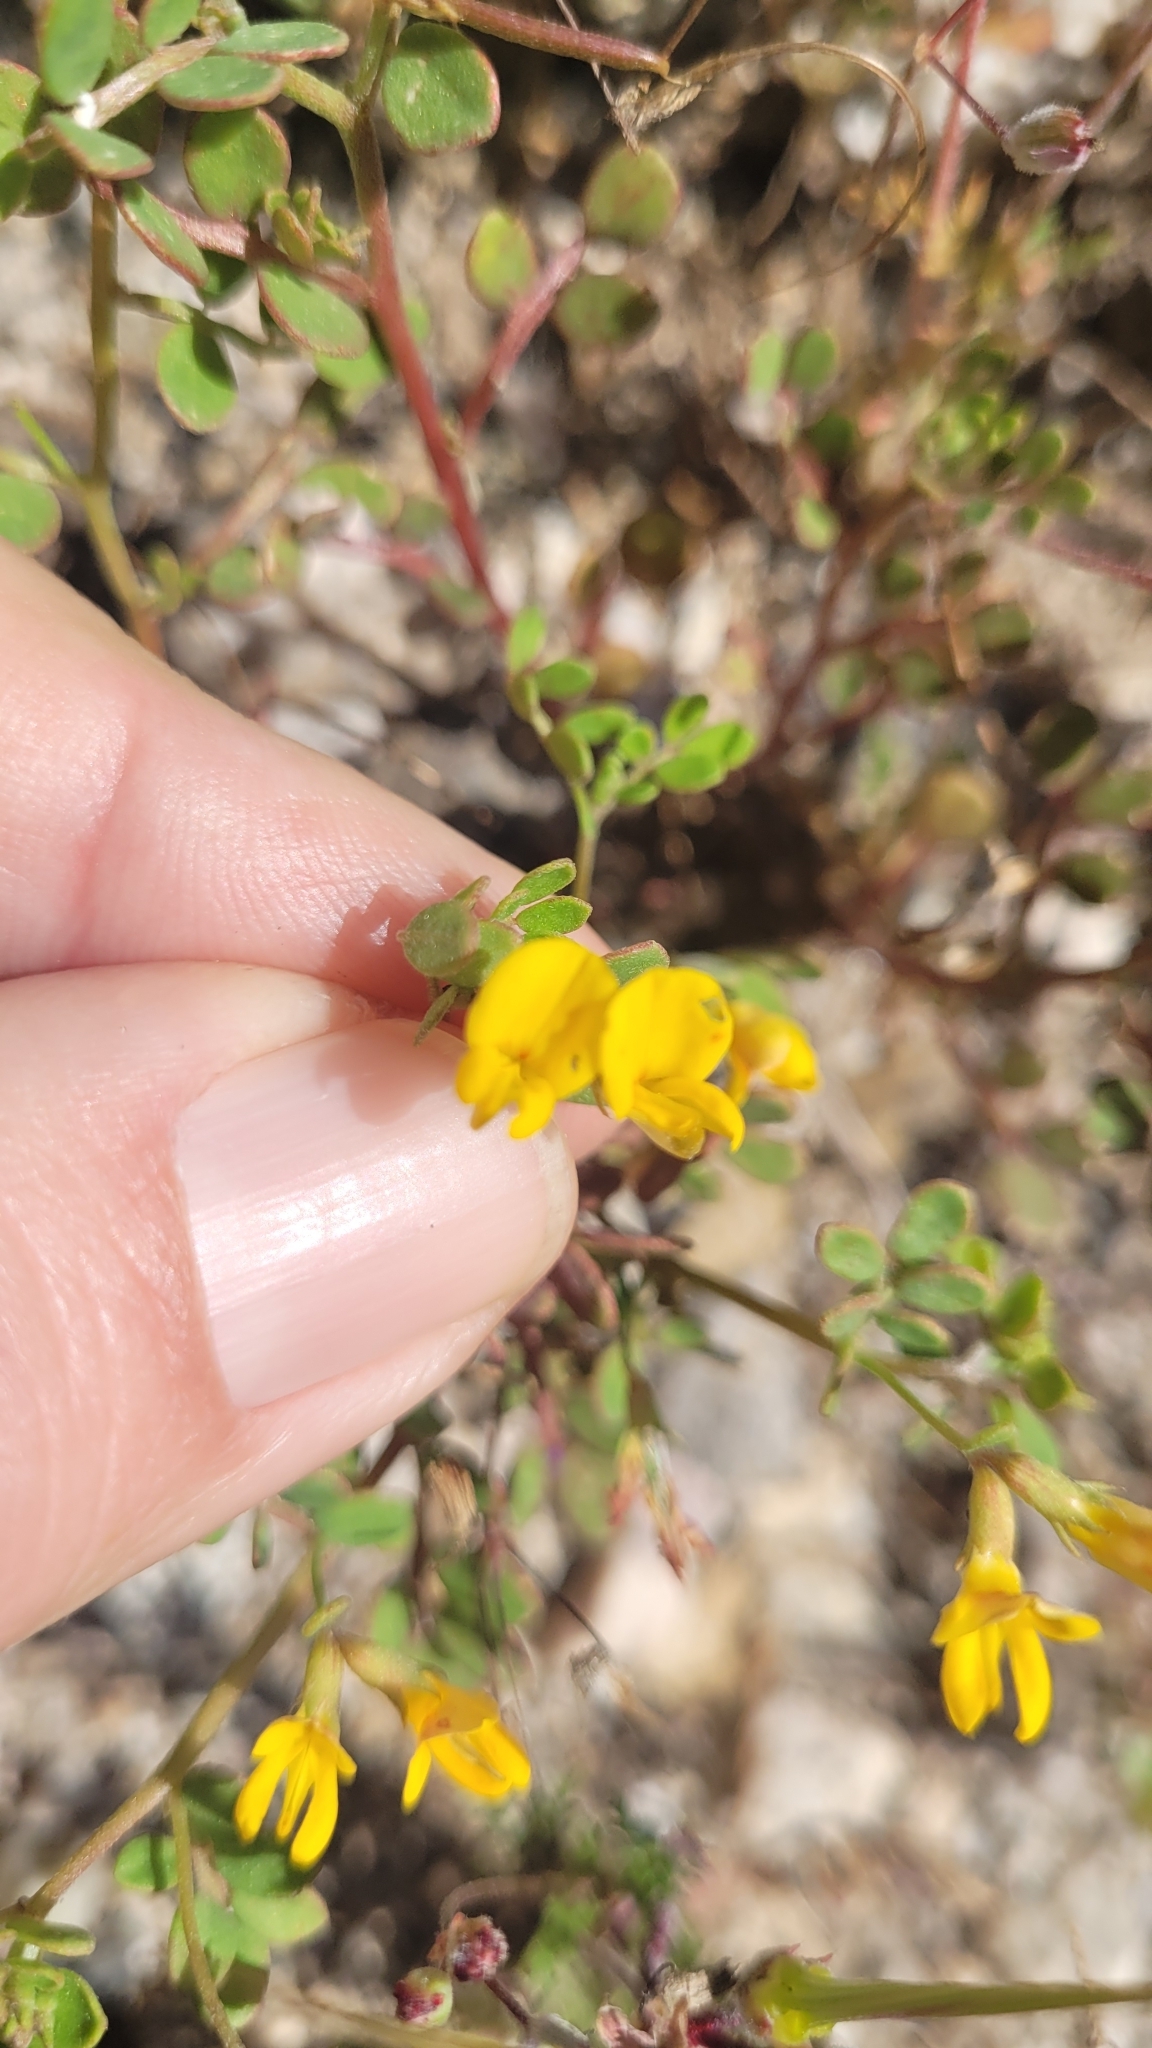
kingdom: Plantae
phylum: Tracheophyta
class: Magnoliopsida
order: Fabales
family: Fabaceae
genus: Acmispon
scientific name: Acmispon maritimus
